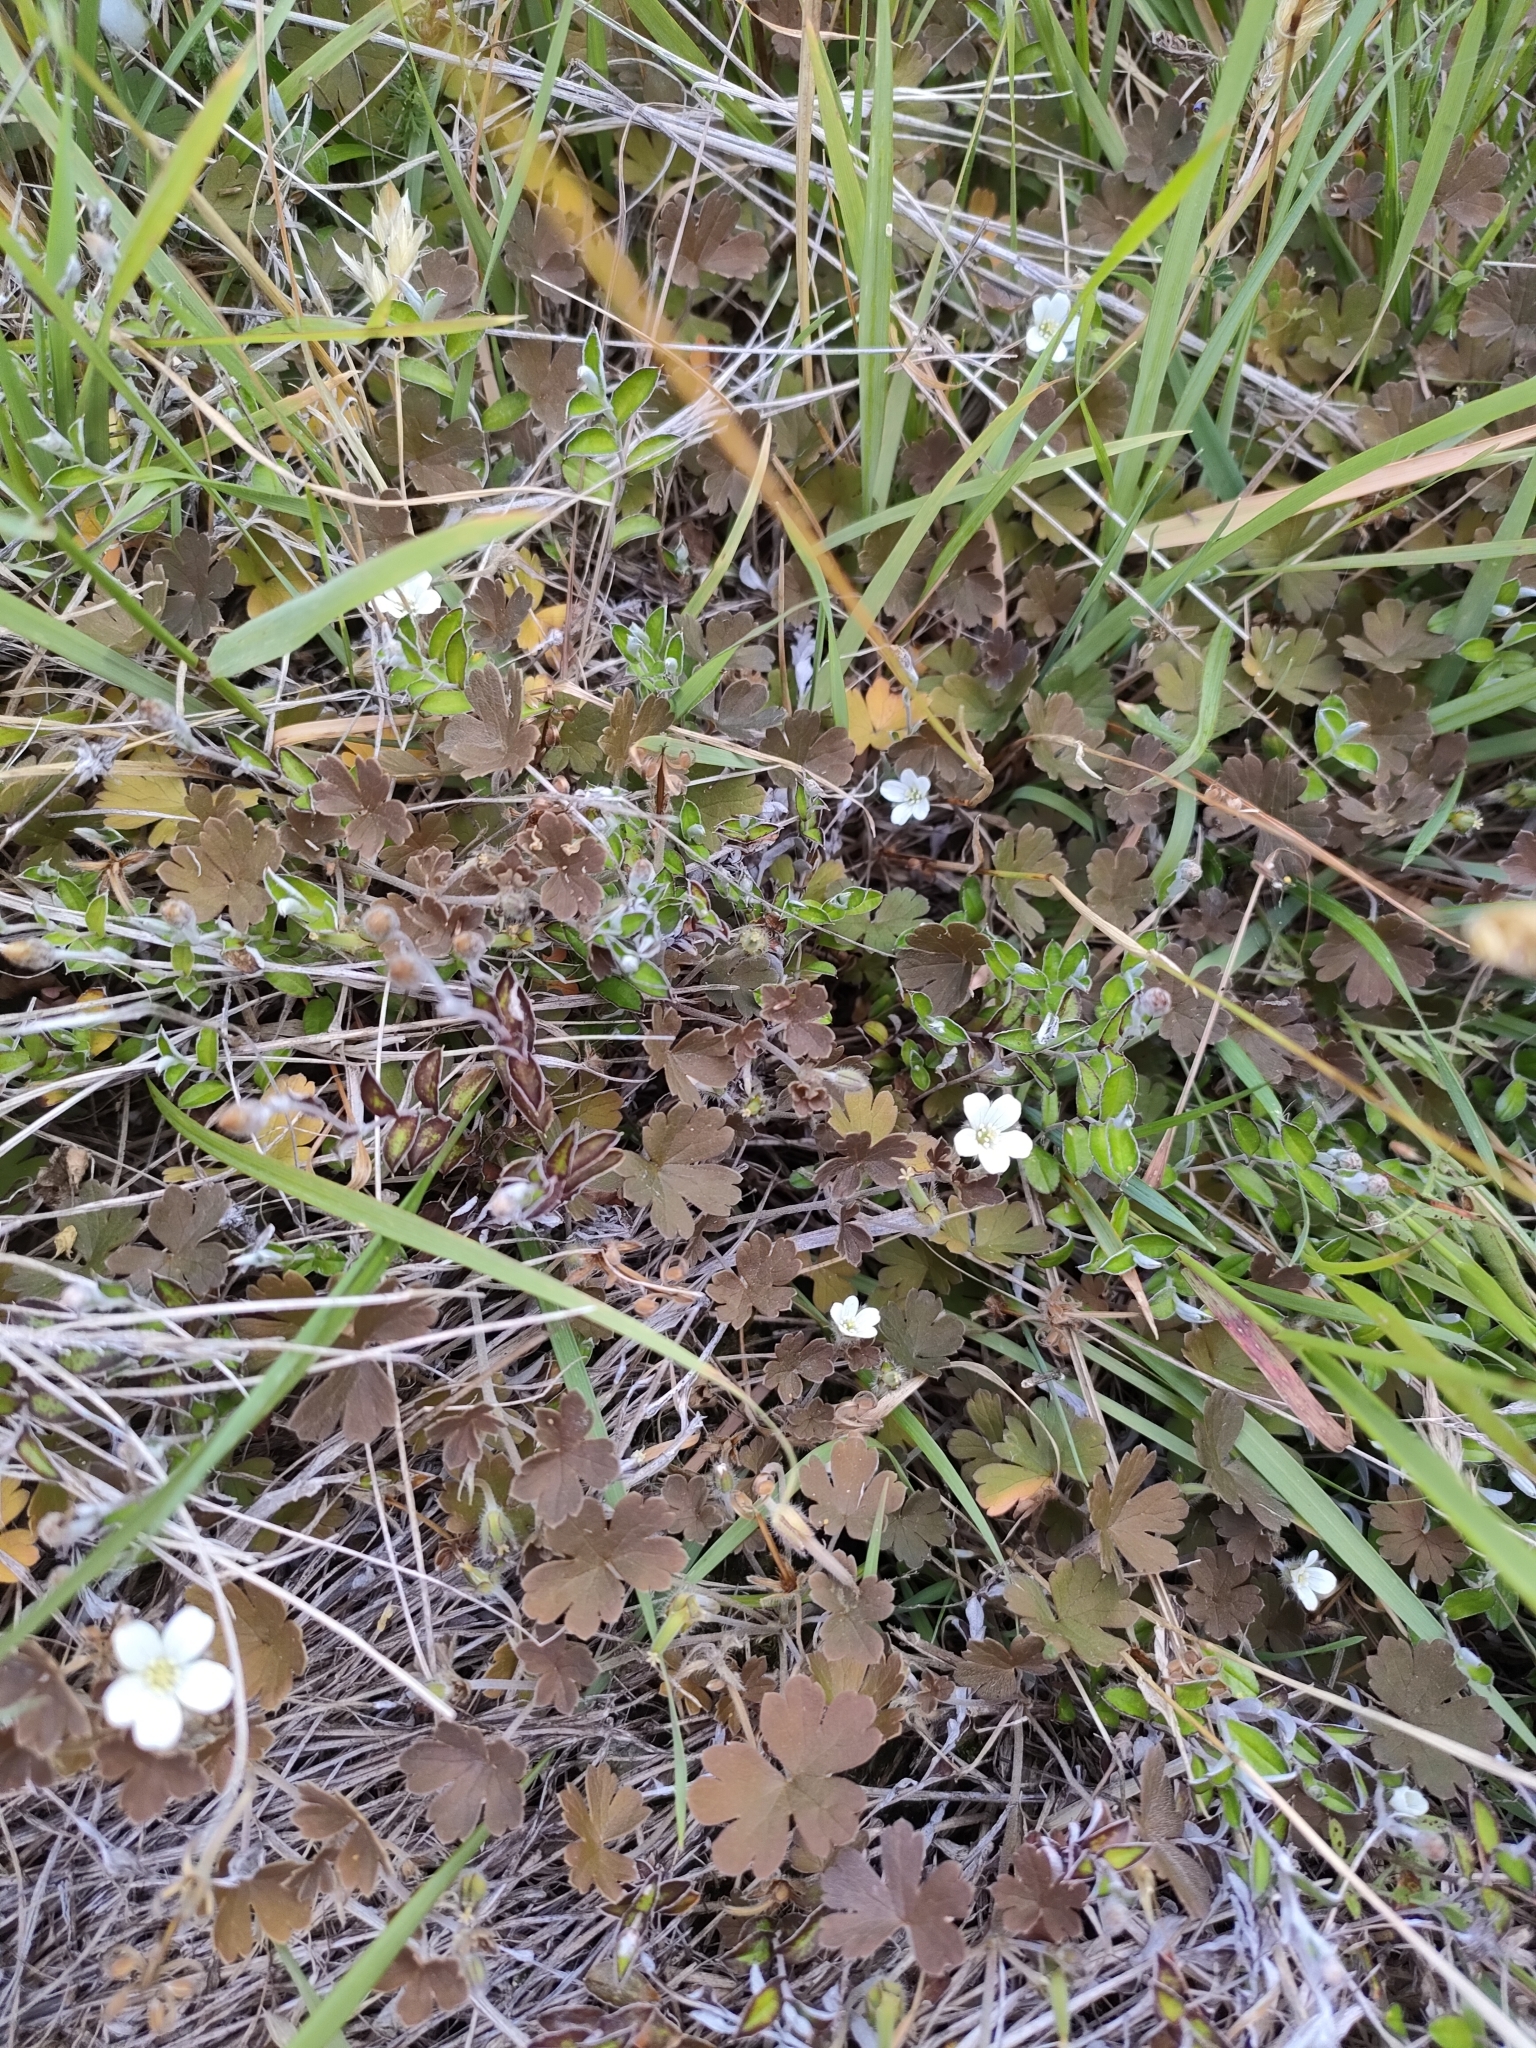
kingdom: Plantae
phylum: Tracheophyta
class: Magnoliopsida
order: Geraniales
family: Geraniaceae
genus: Geranium
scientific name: Geranium brevicaule
